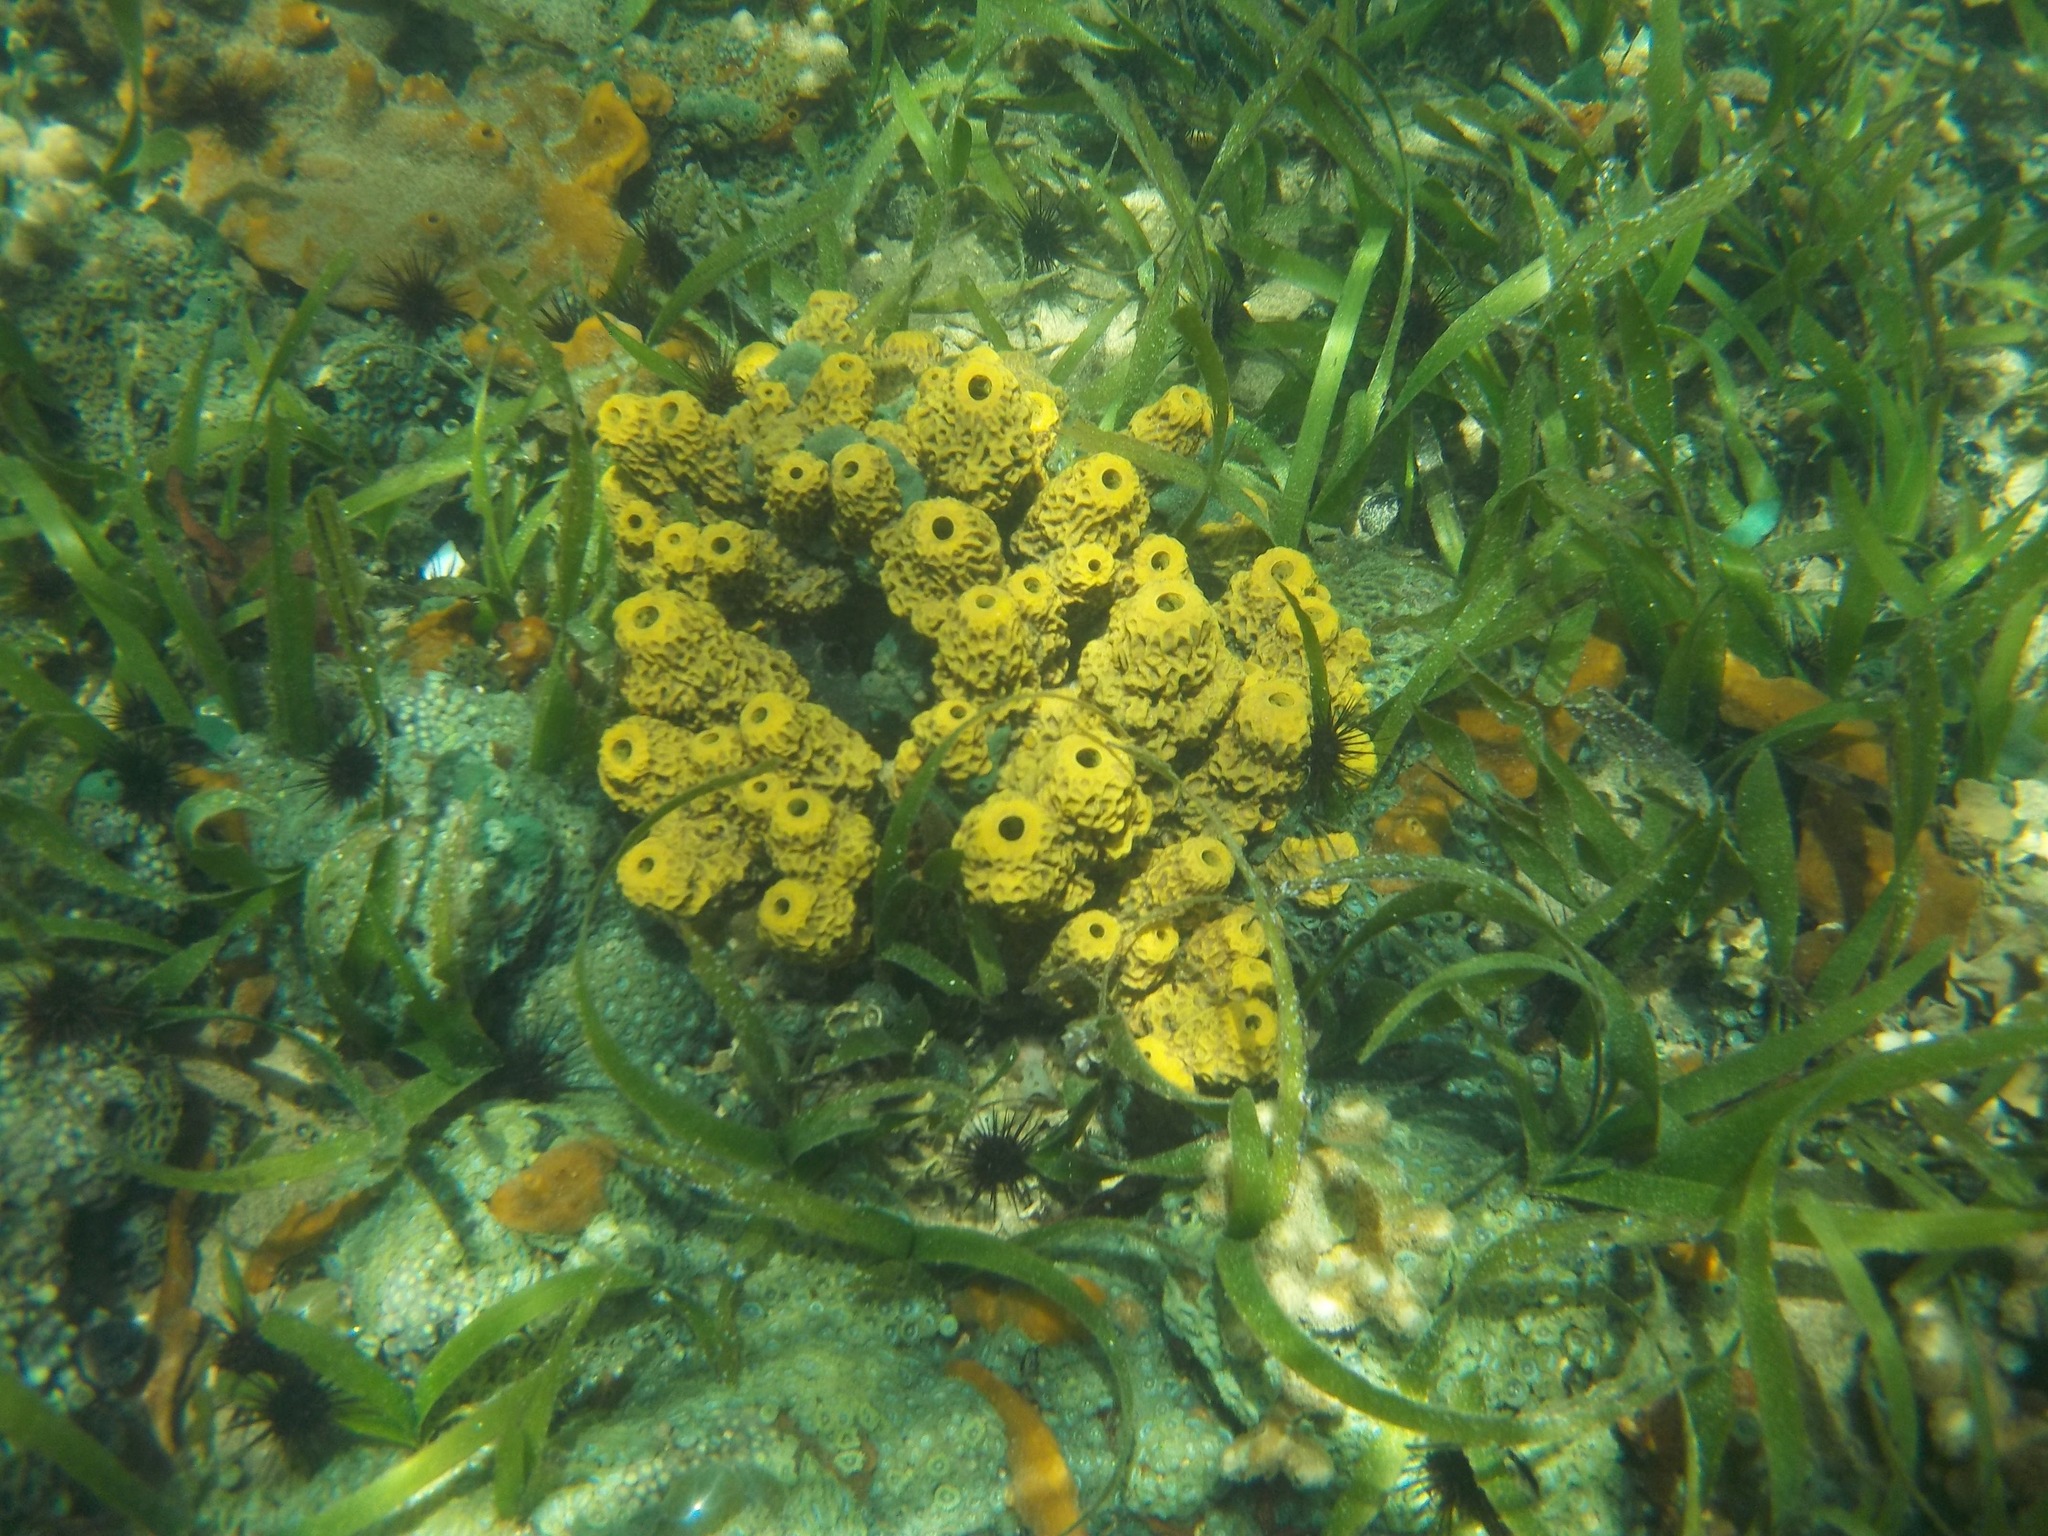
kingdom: Animalia
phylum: Porifera
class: Demospongiae
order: Verongiida
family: Aplysinidae
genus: Verongula
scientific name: Verongula rigida
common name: Pitted sponge
